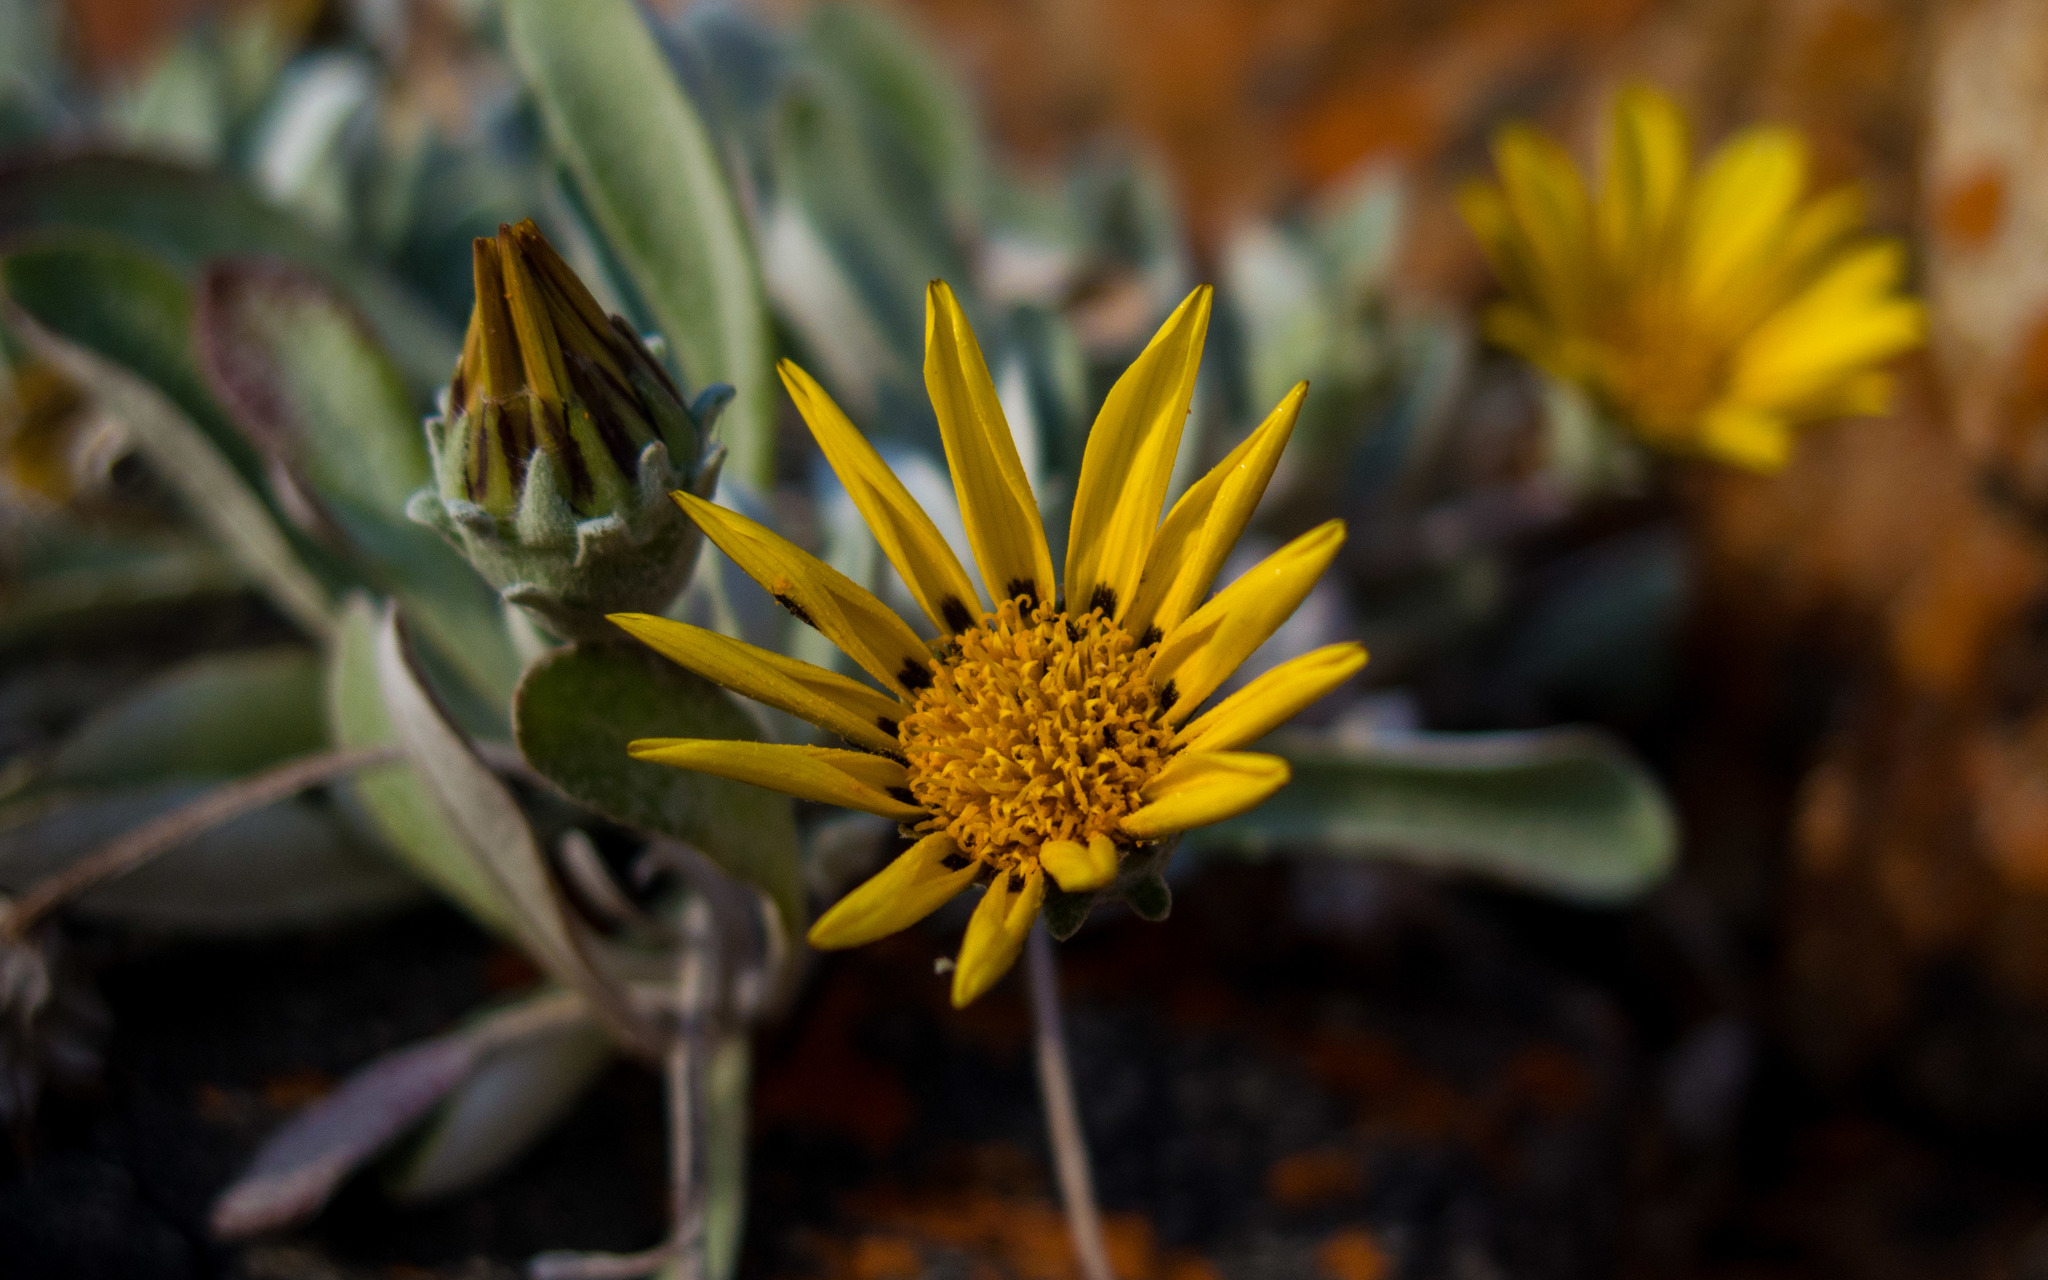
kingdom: Plantae
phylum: Tracheophyta
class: Magnoliopsida
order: Asterales
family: Asteraceae
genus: Gazania
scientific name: Gazania rigens
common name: Treasureflower
